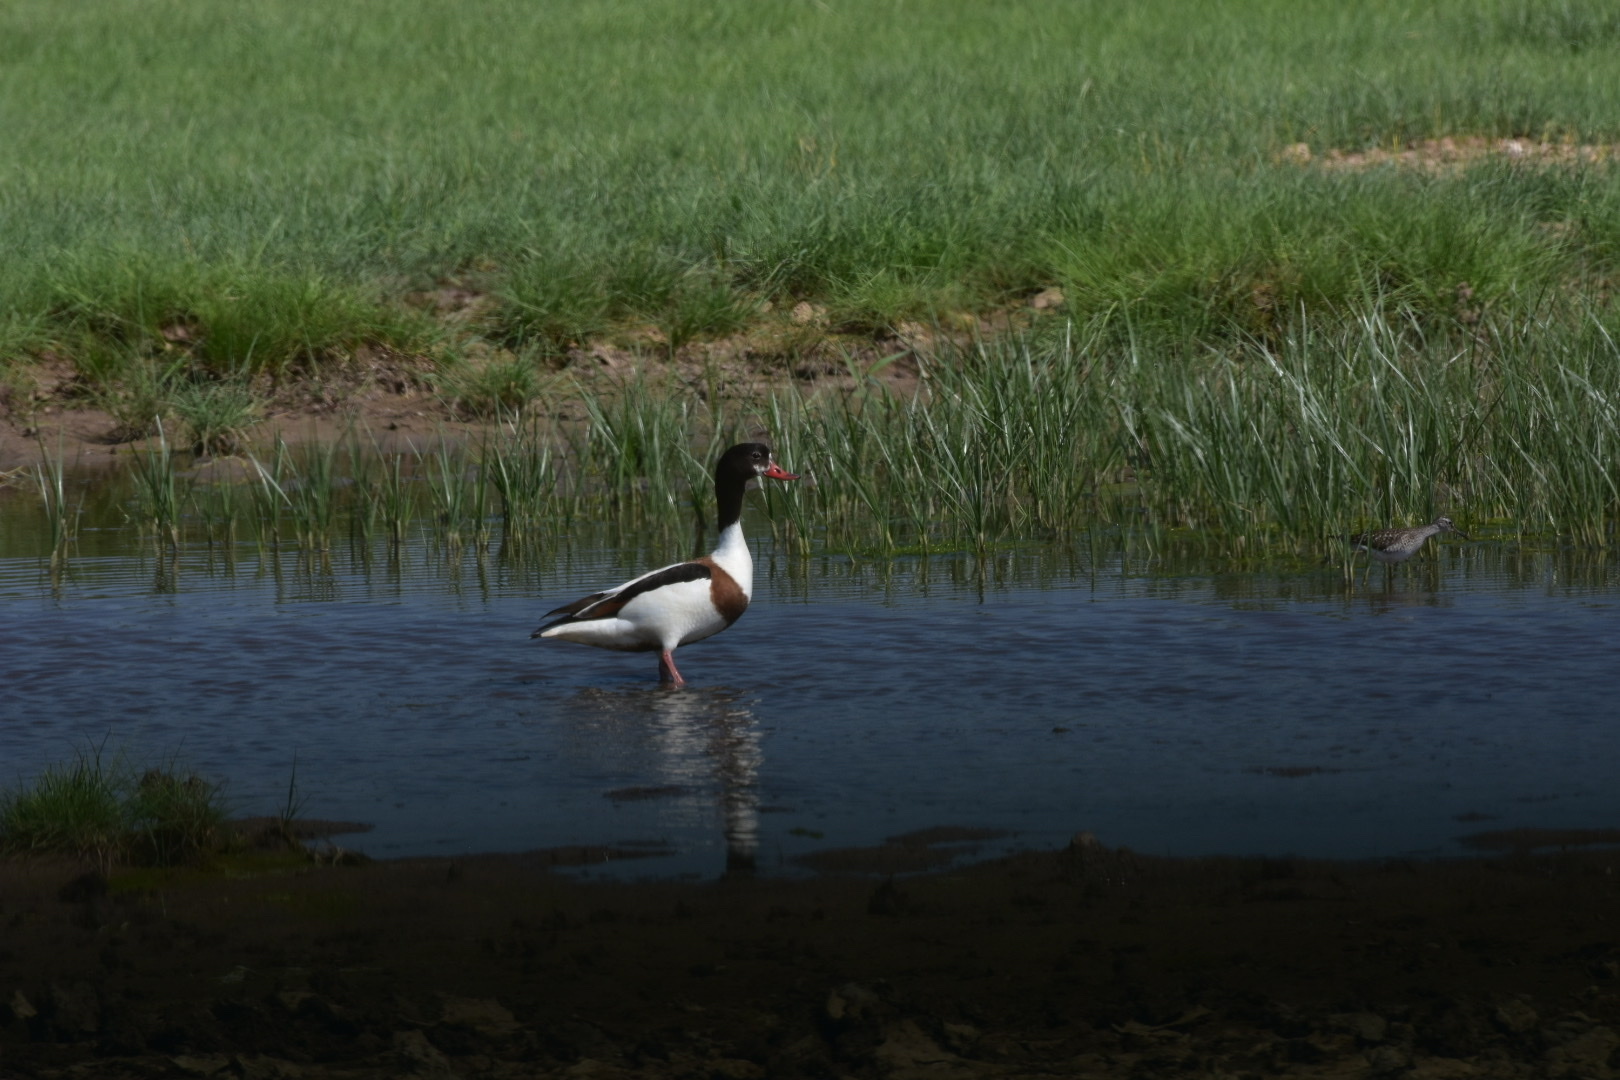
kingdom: Animalia
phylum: Chordata
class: Aves
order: Anseriformes
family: Anatidae
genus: Tadorna
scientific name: Tadorna tadorna
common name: Common shelduck
